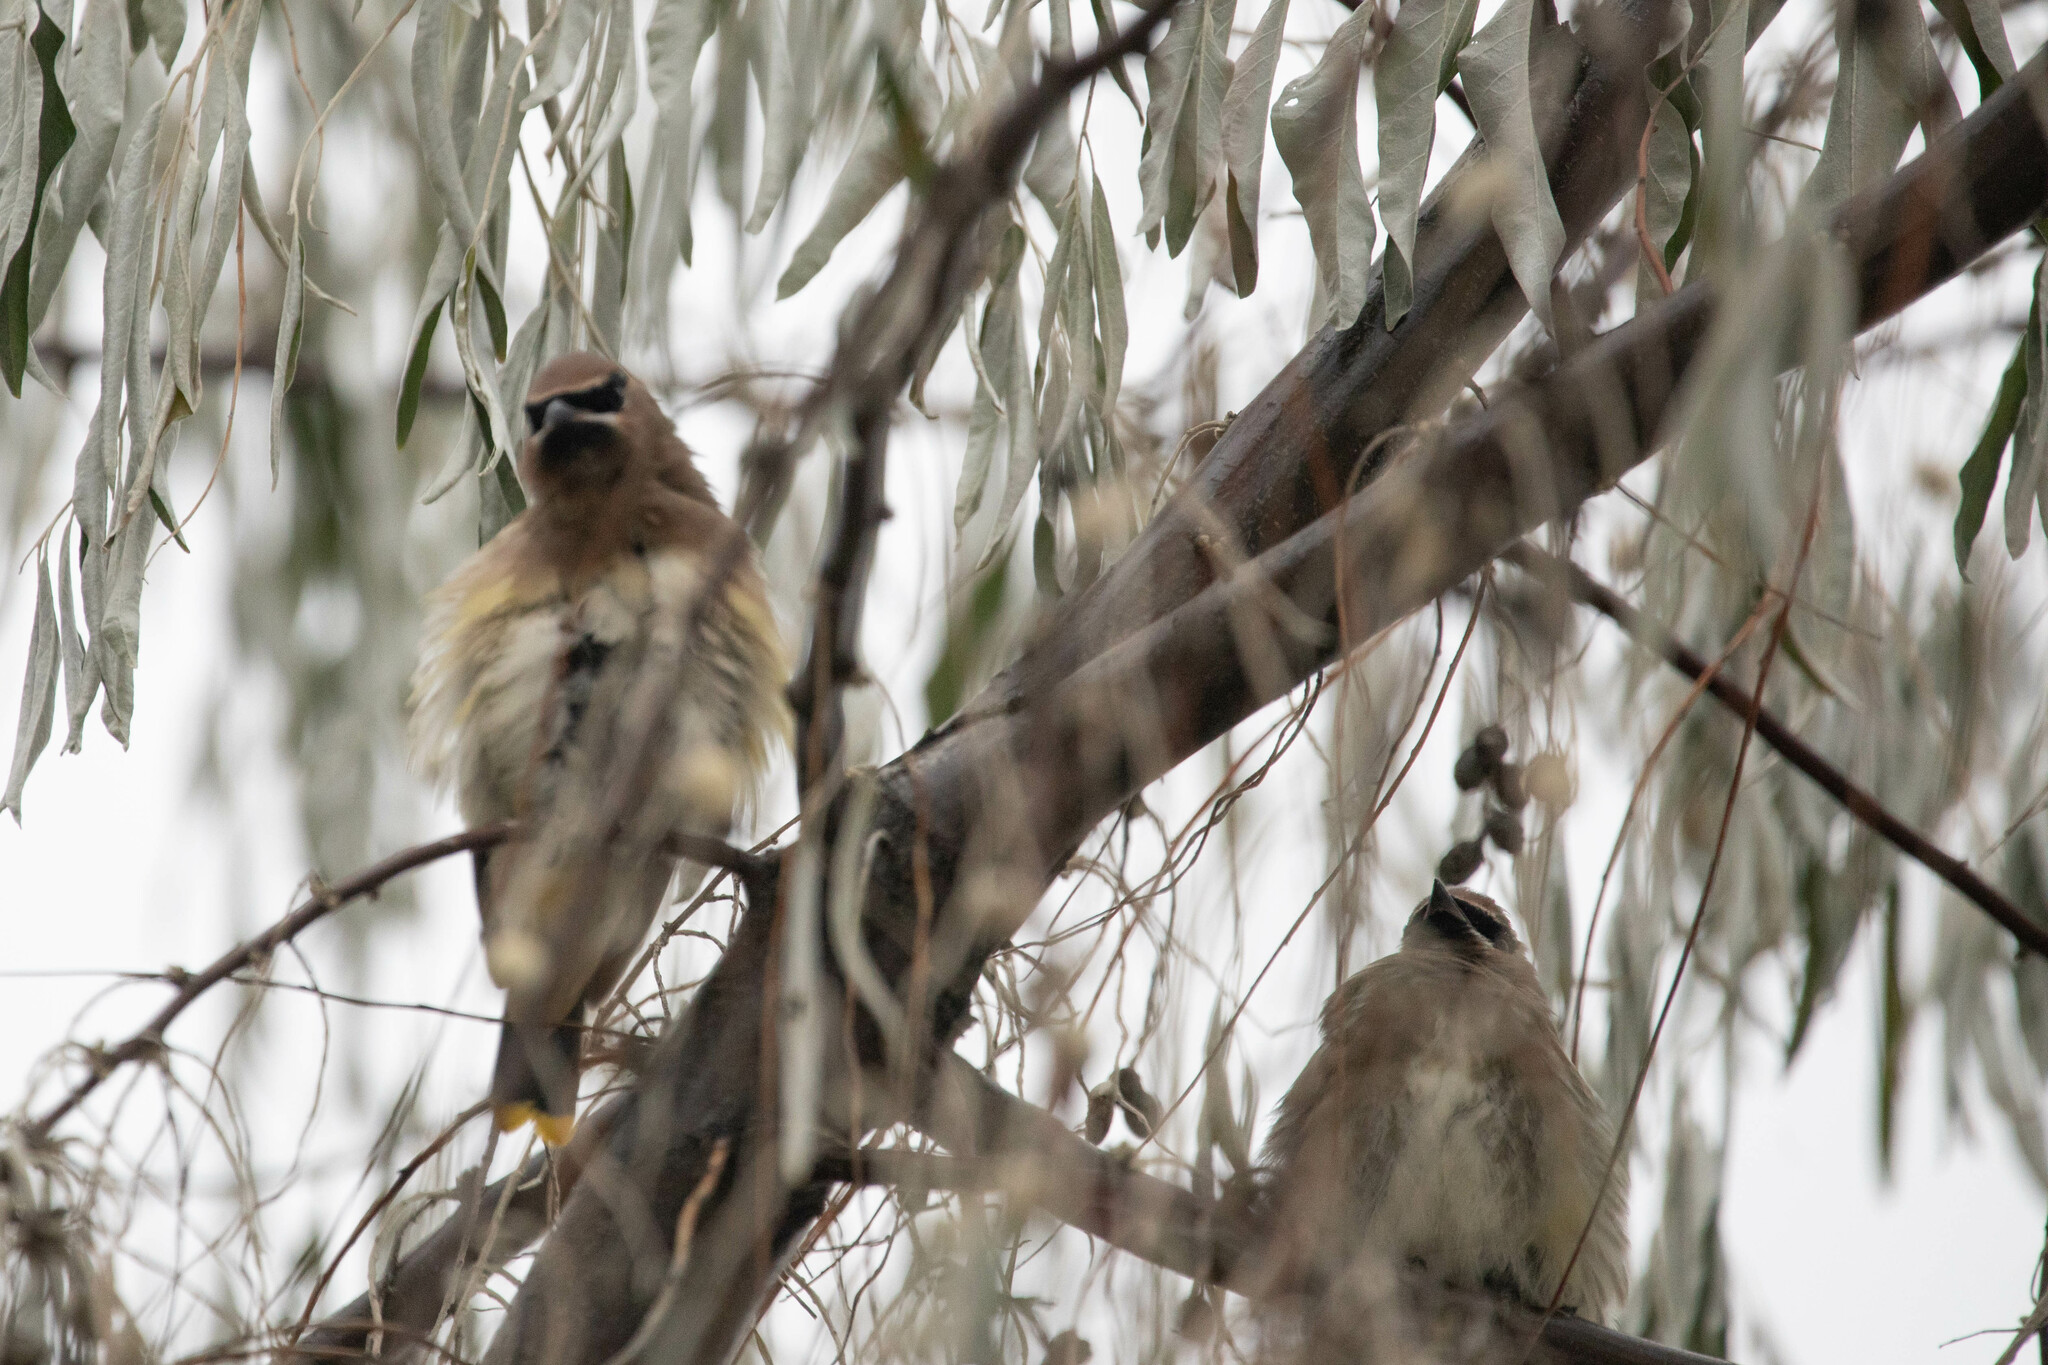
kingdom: Animalia
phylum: Chordata
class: Aves
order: Passeriformes
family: Bombycillidae
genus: Bombycilla
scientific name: Bombycilla cedrorum
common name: Cedar waxwing
